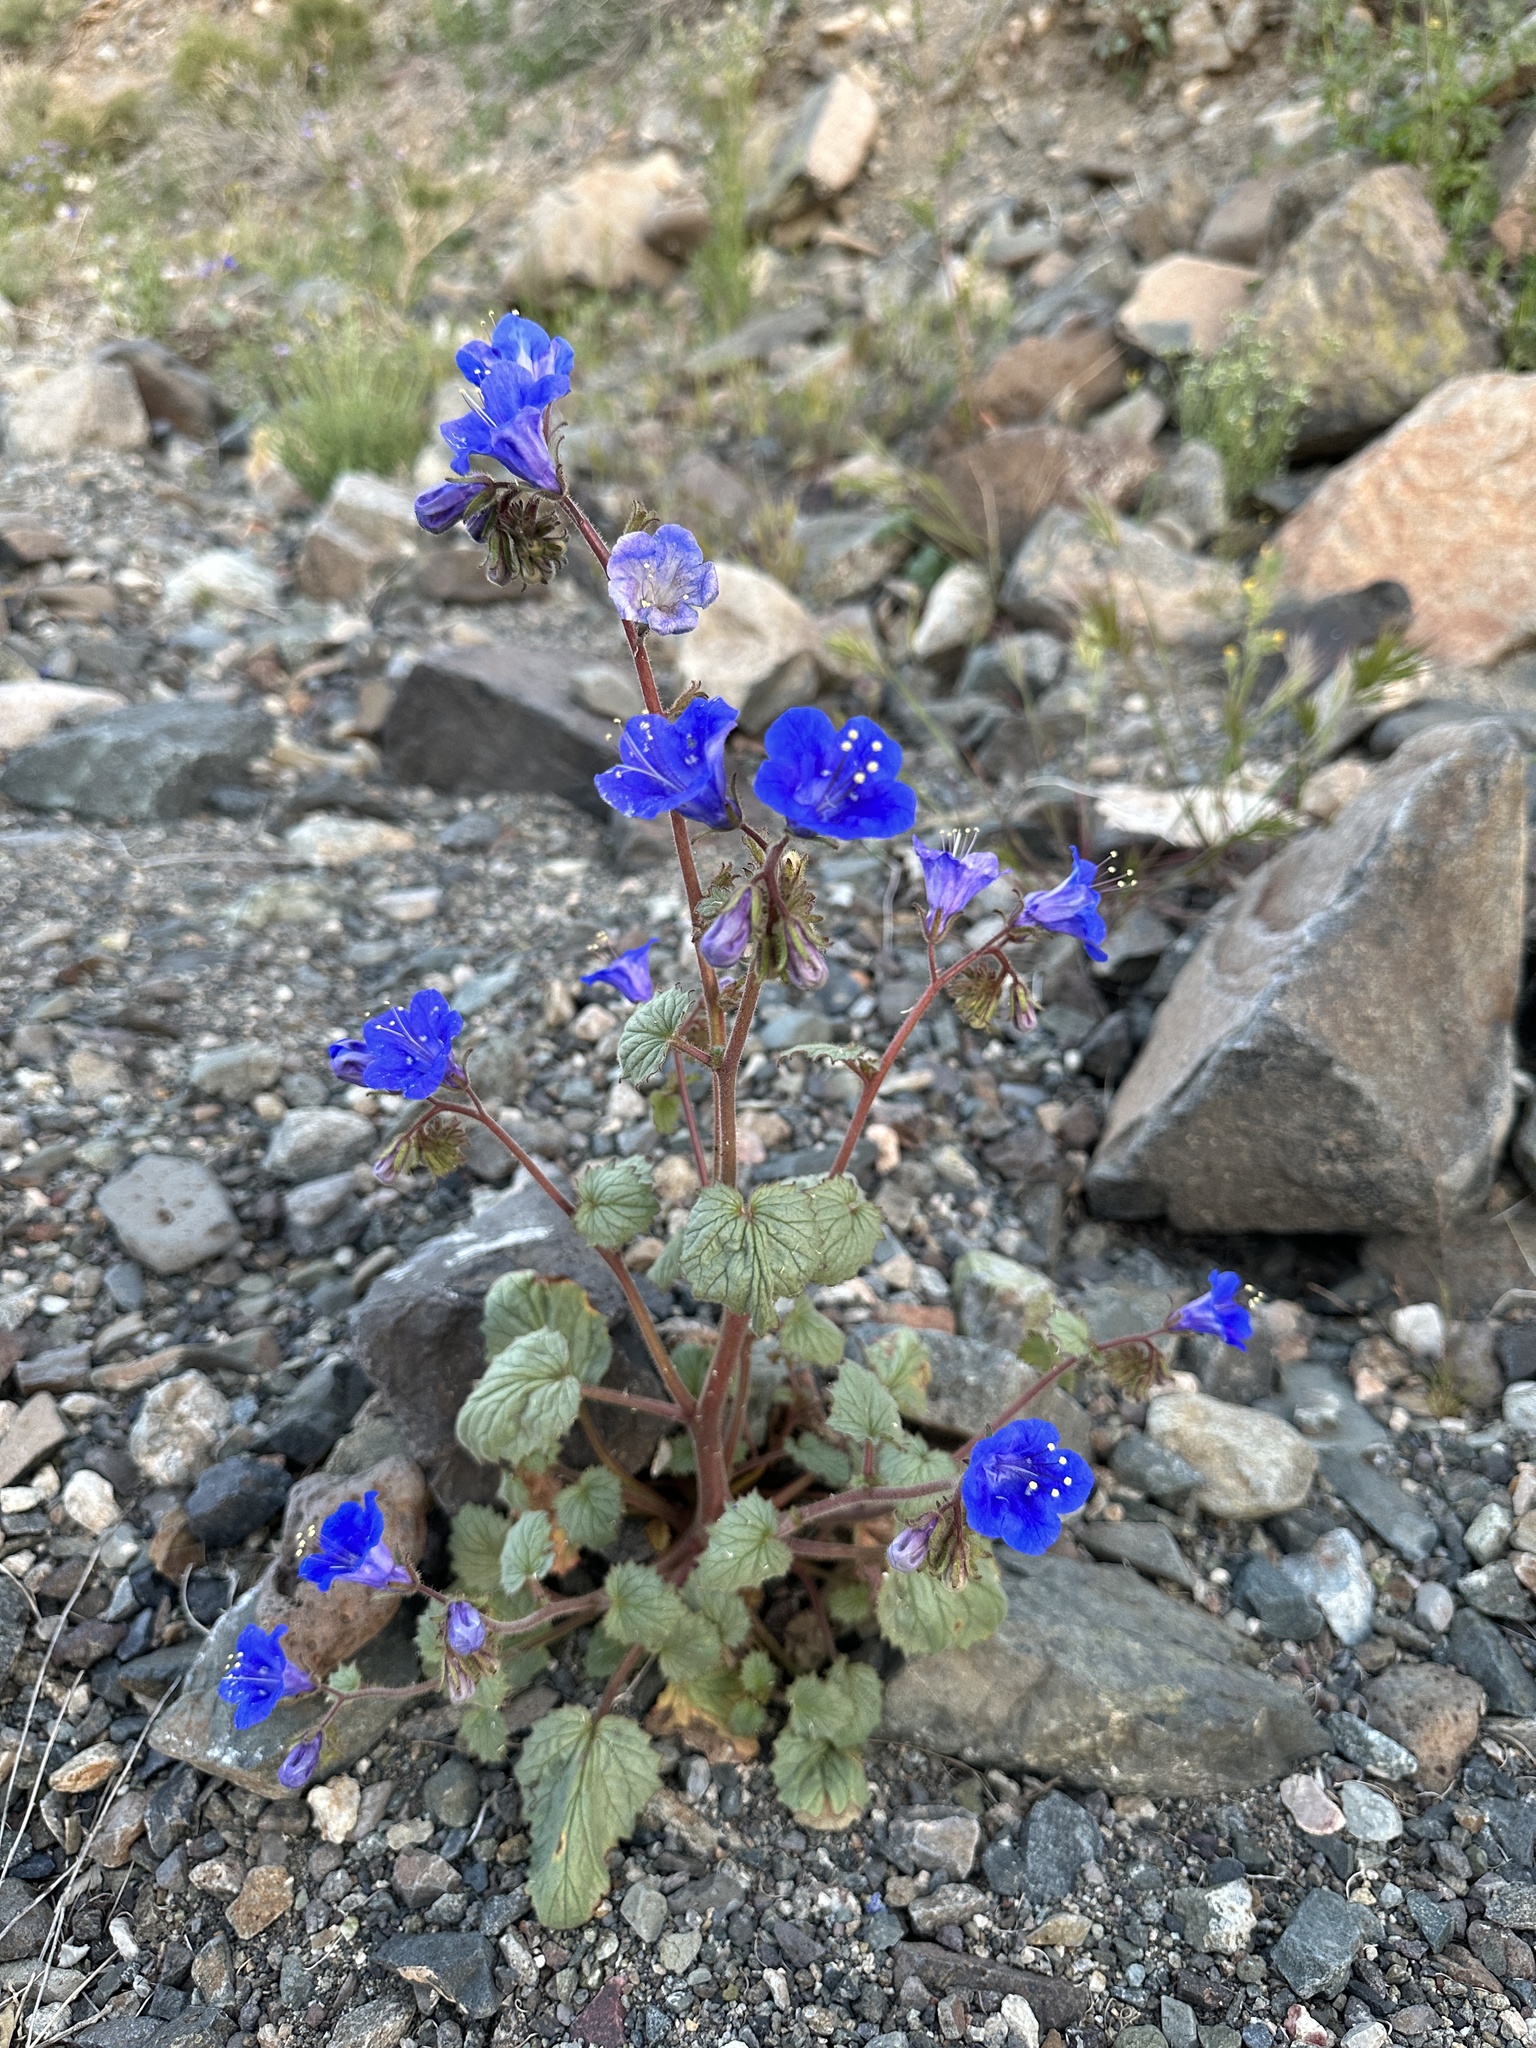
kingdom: Plantae
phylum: Tracheophyta
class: Magnoliopsida
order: Boraginales
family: Hydrophyllaceae
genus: Phacelia
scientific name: Phacelia campanularia
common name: California bluebell
